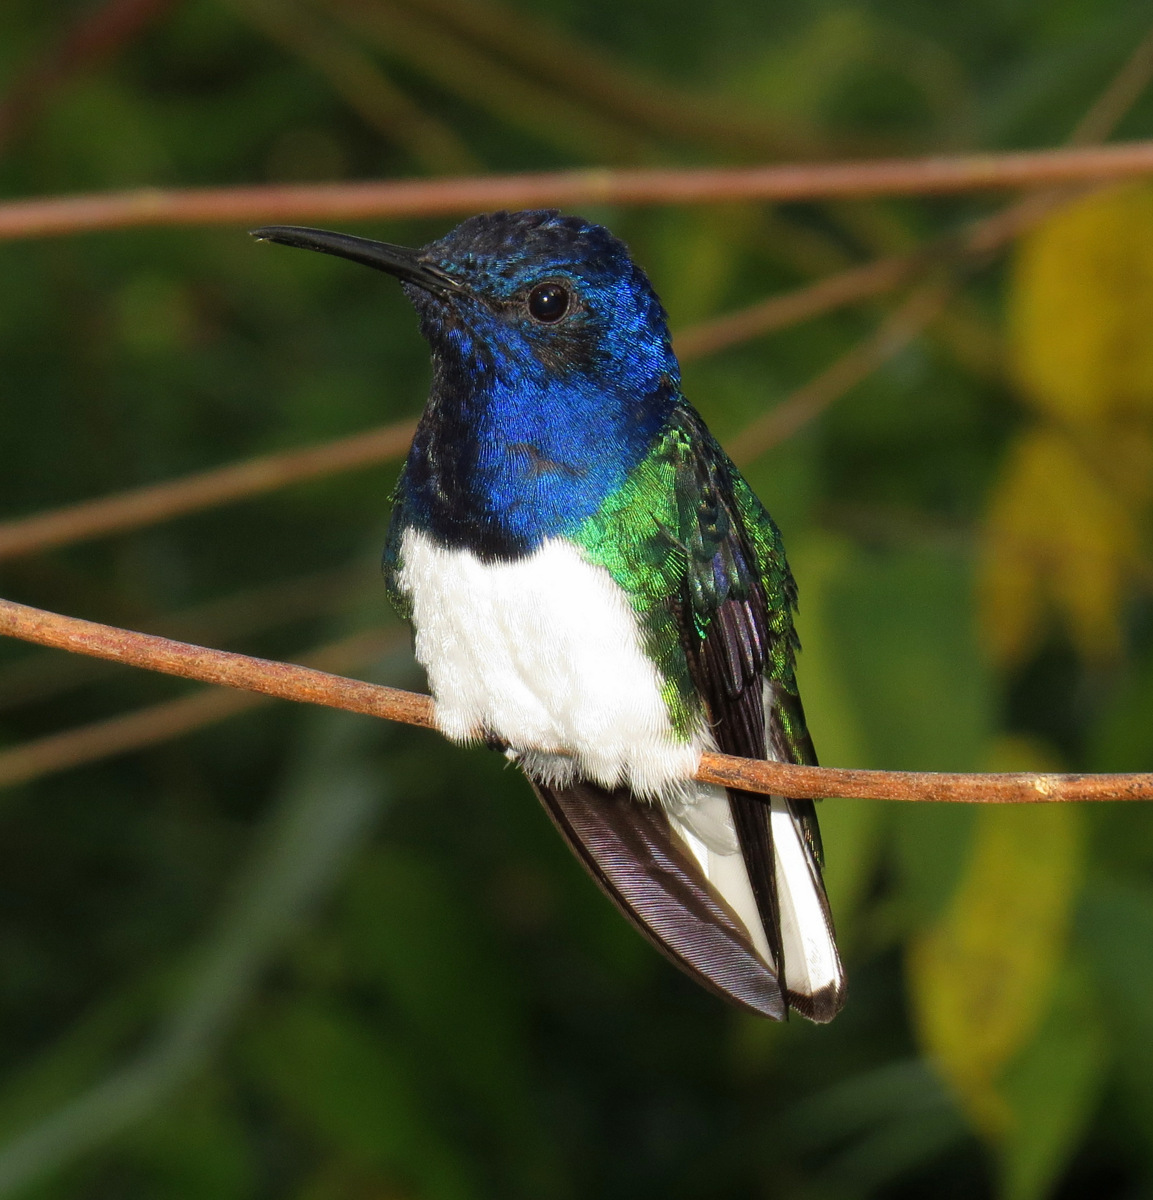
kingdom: Animalia
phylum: Chordata
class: Aves
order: Apodiformes
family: Trochilidae
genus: Florisuga
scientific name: Florisuga mellivora
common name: White-necked jacobin
